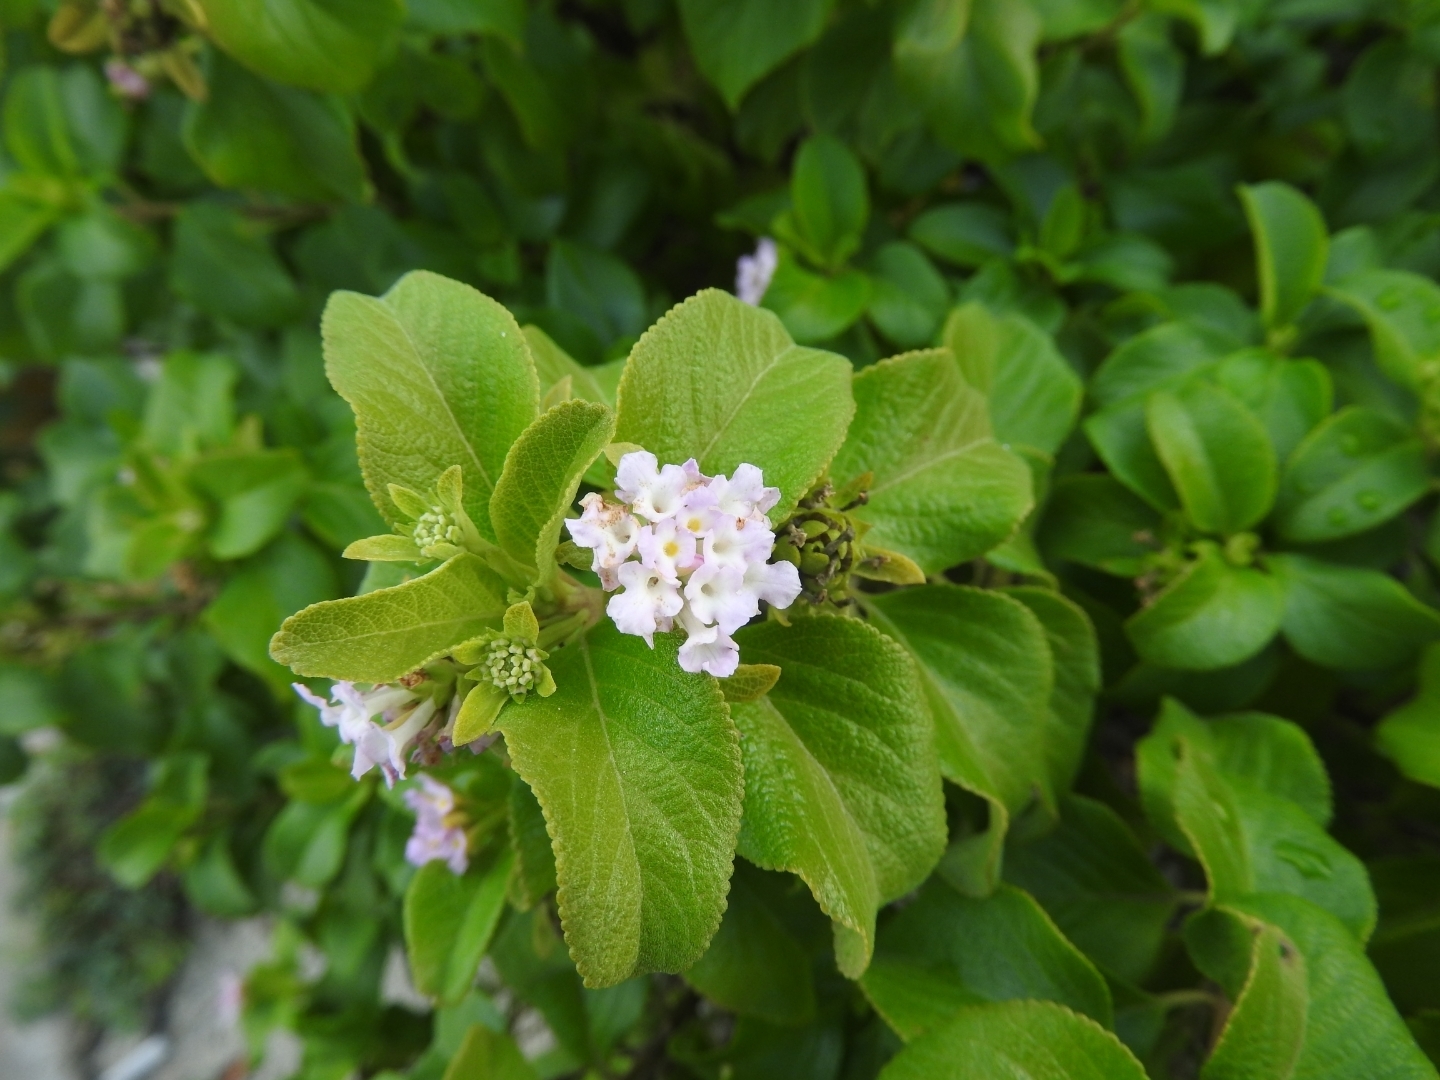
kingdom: Plantae
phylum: Tracheophyta
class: Magnoliopsida
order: Lamiales
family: Verbenaceae
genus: Lantana
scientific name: Lantana involucrata
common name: Black sage
